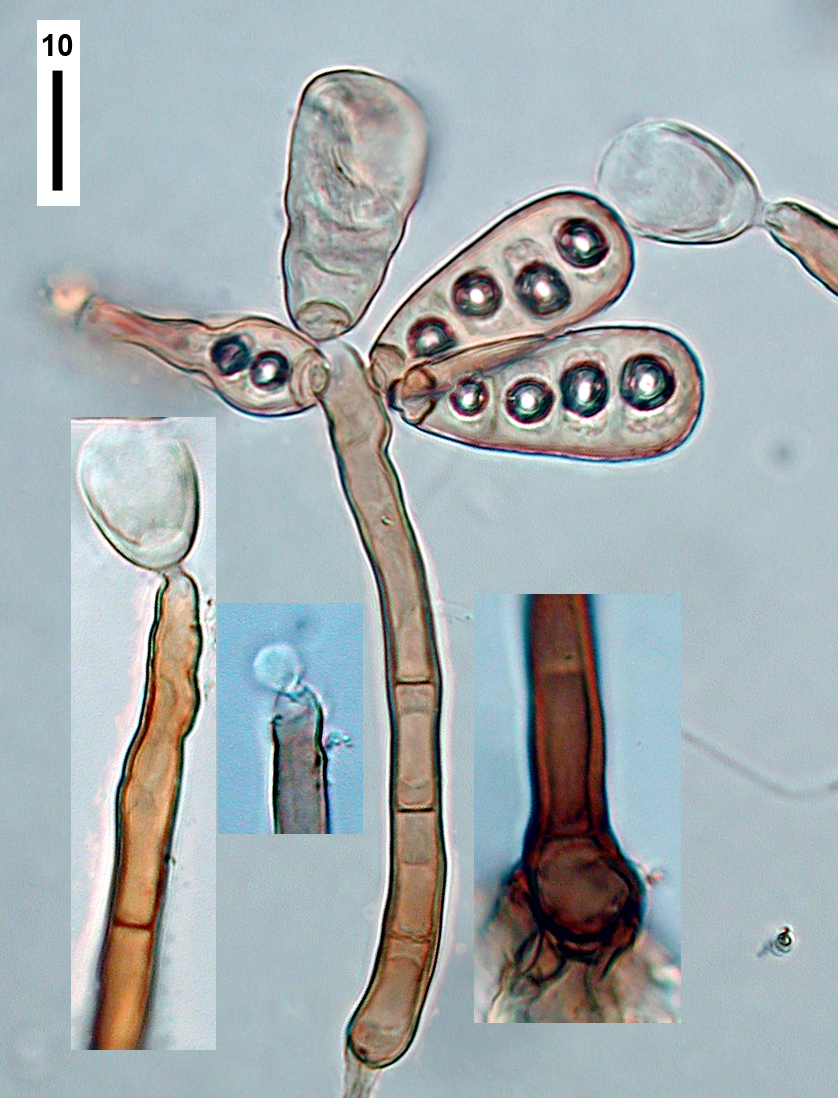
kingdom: Fungi
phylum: Ascomycota
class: Dothideomycetes
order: Pleosporales
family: Melanommataceae
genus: Sporidesmiella
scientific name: Sporidesmiella novae-zelandiae
